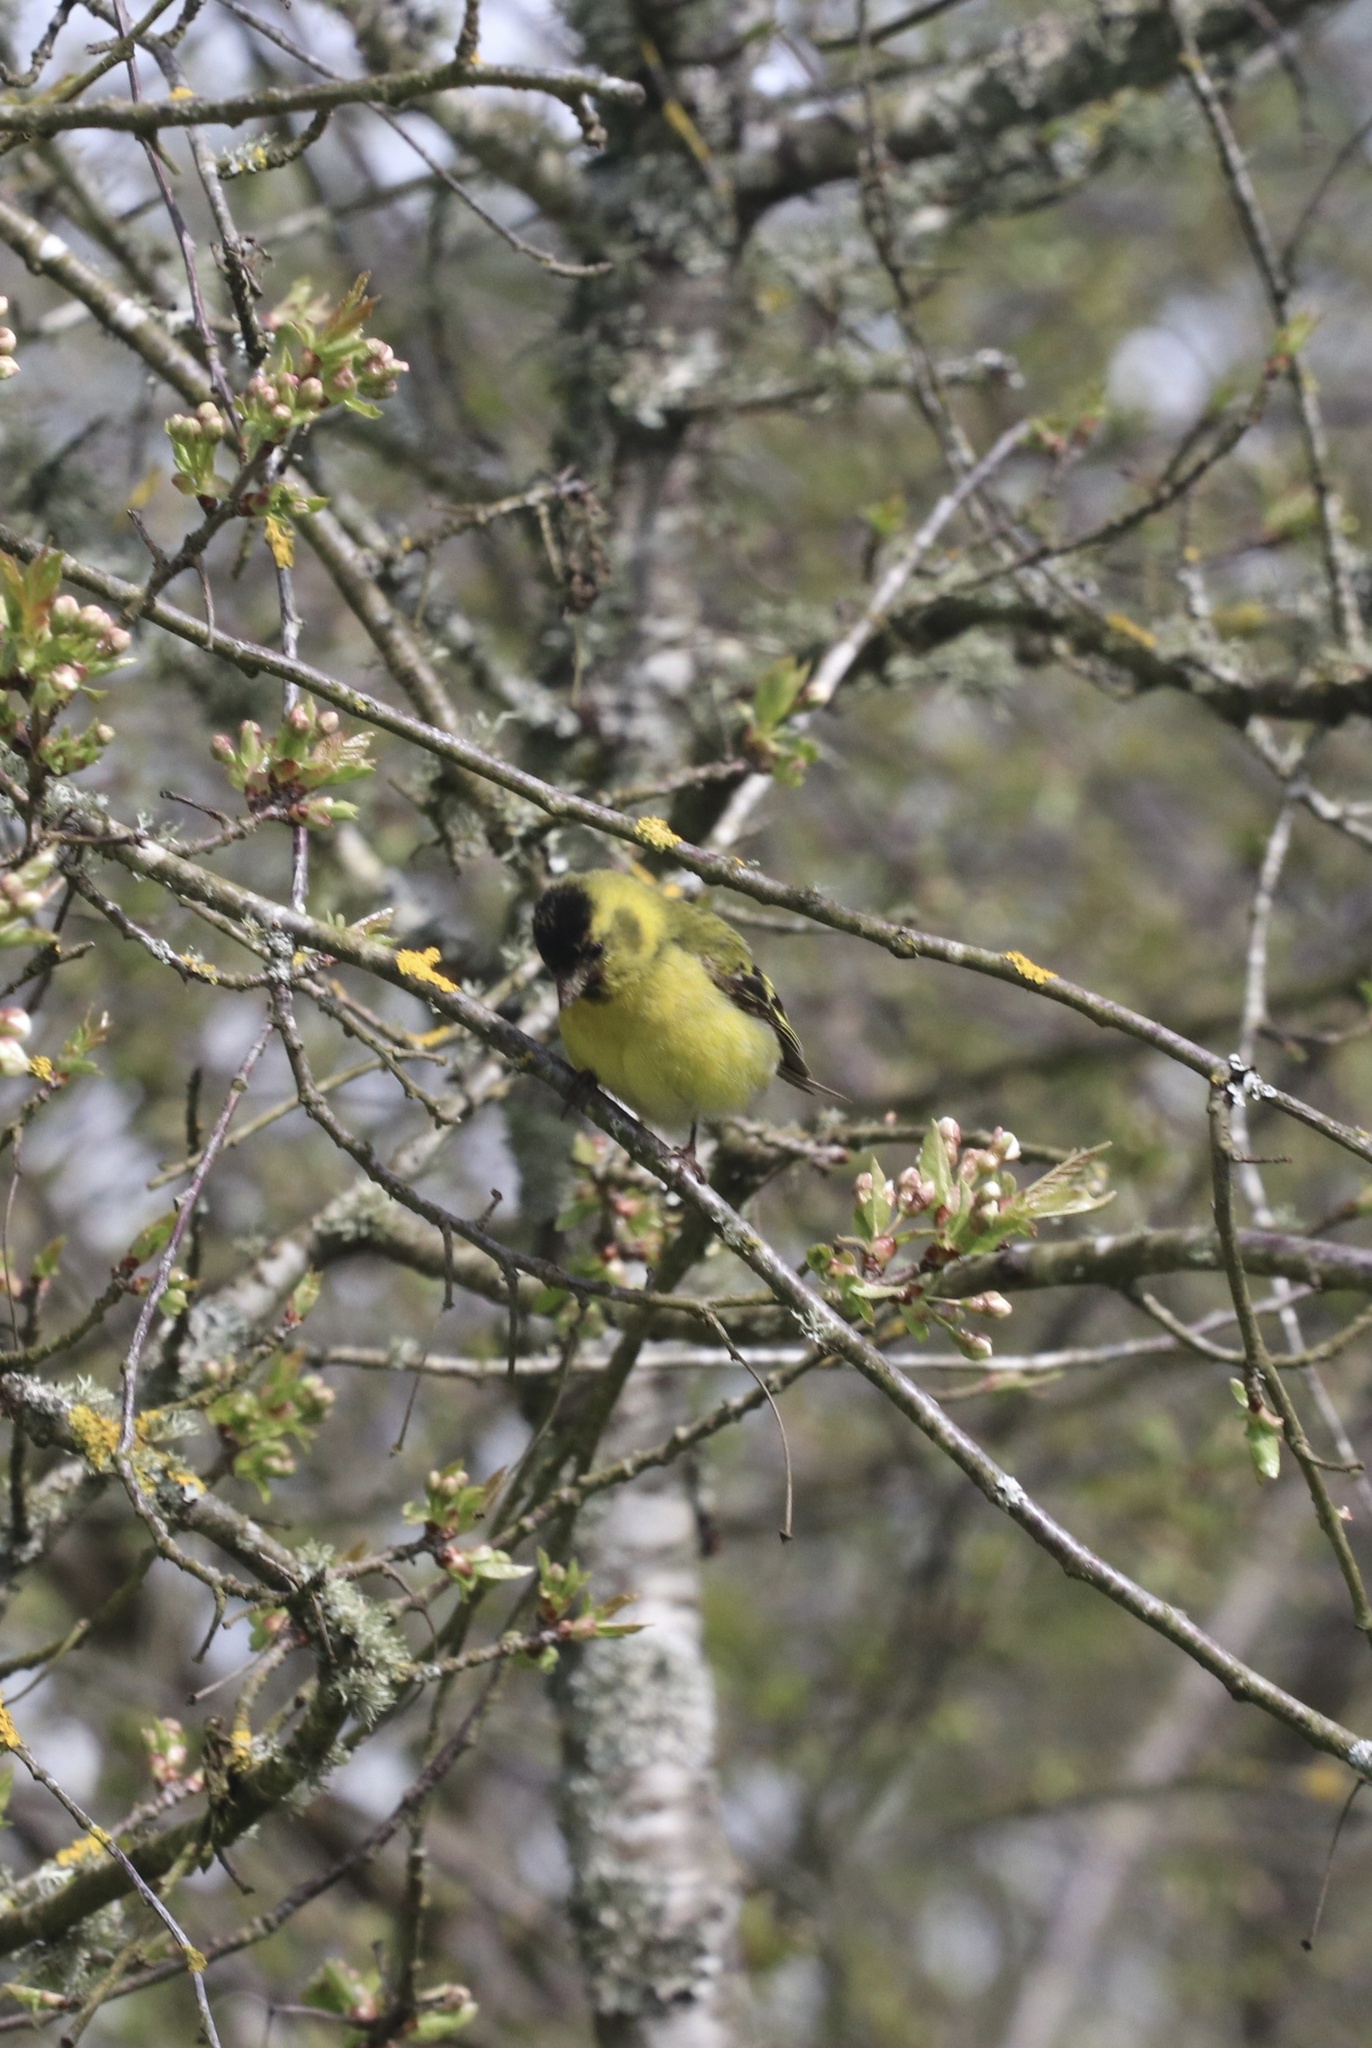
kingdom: Animalia
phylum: Chordata
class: Aves
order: Passeriformes
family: Fringillidae
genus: Spinus
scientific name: Spinus barbatus
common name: Black-chinned siskin
